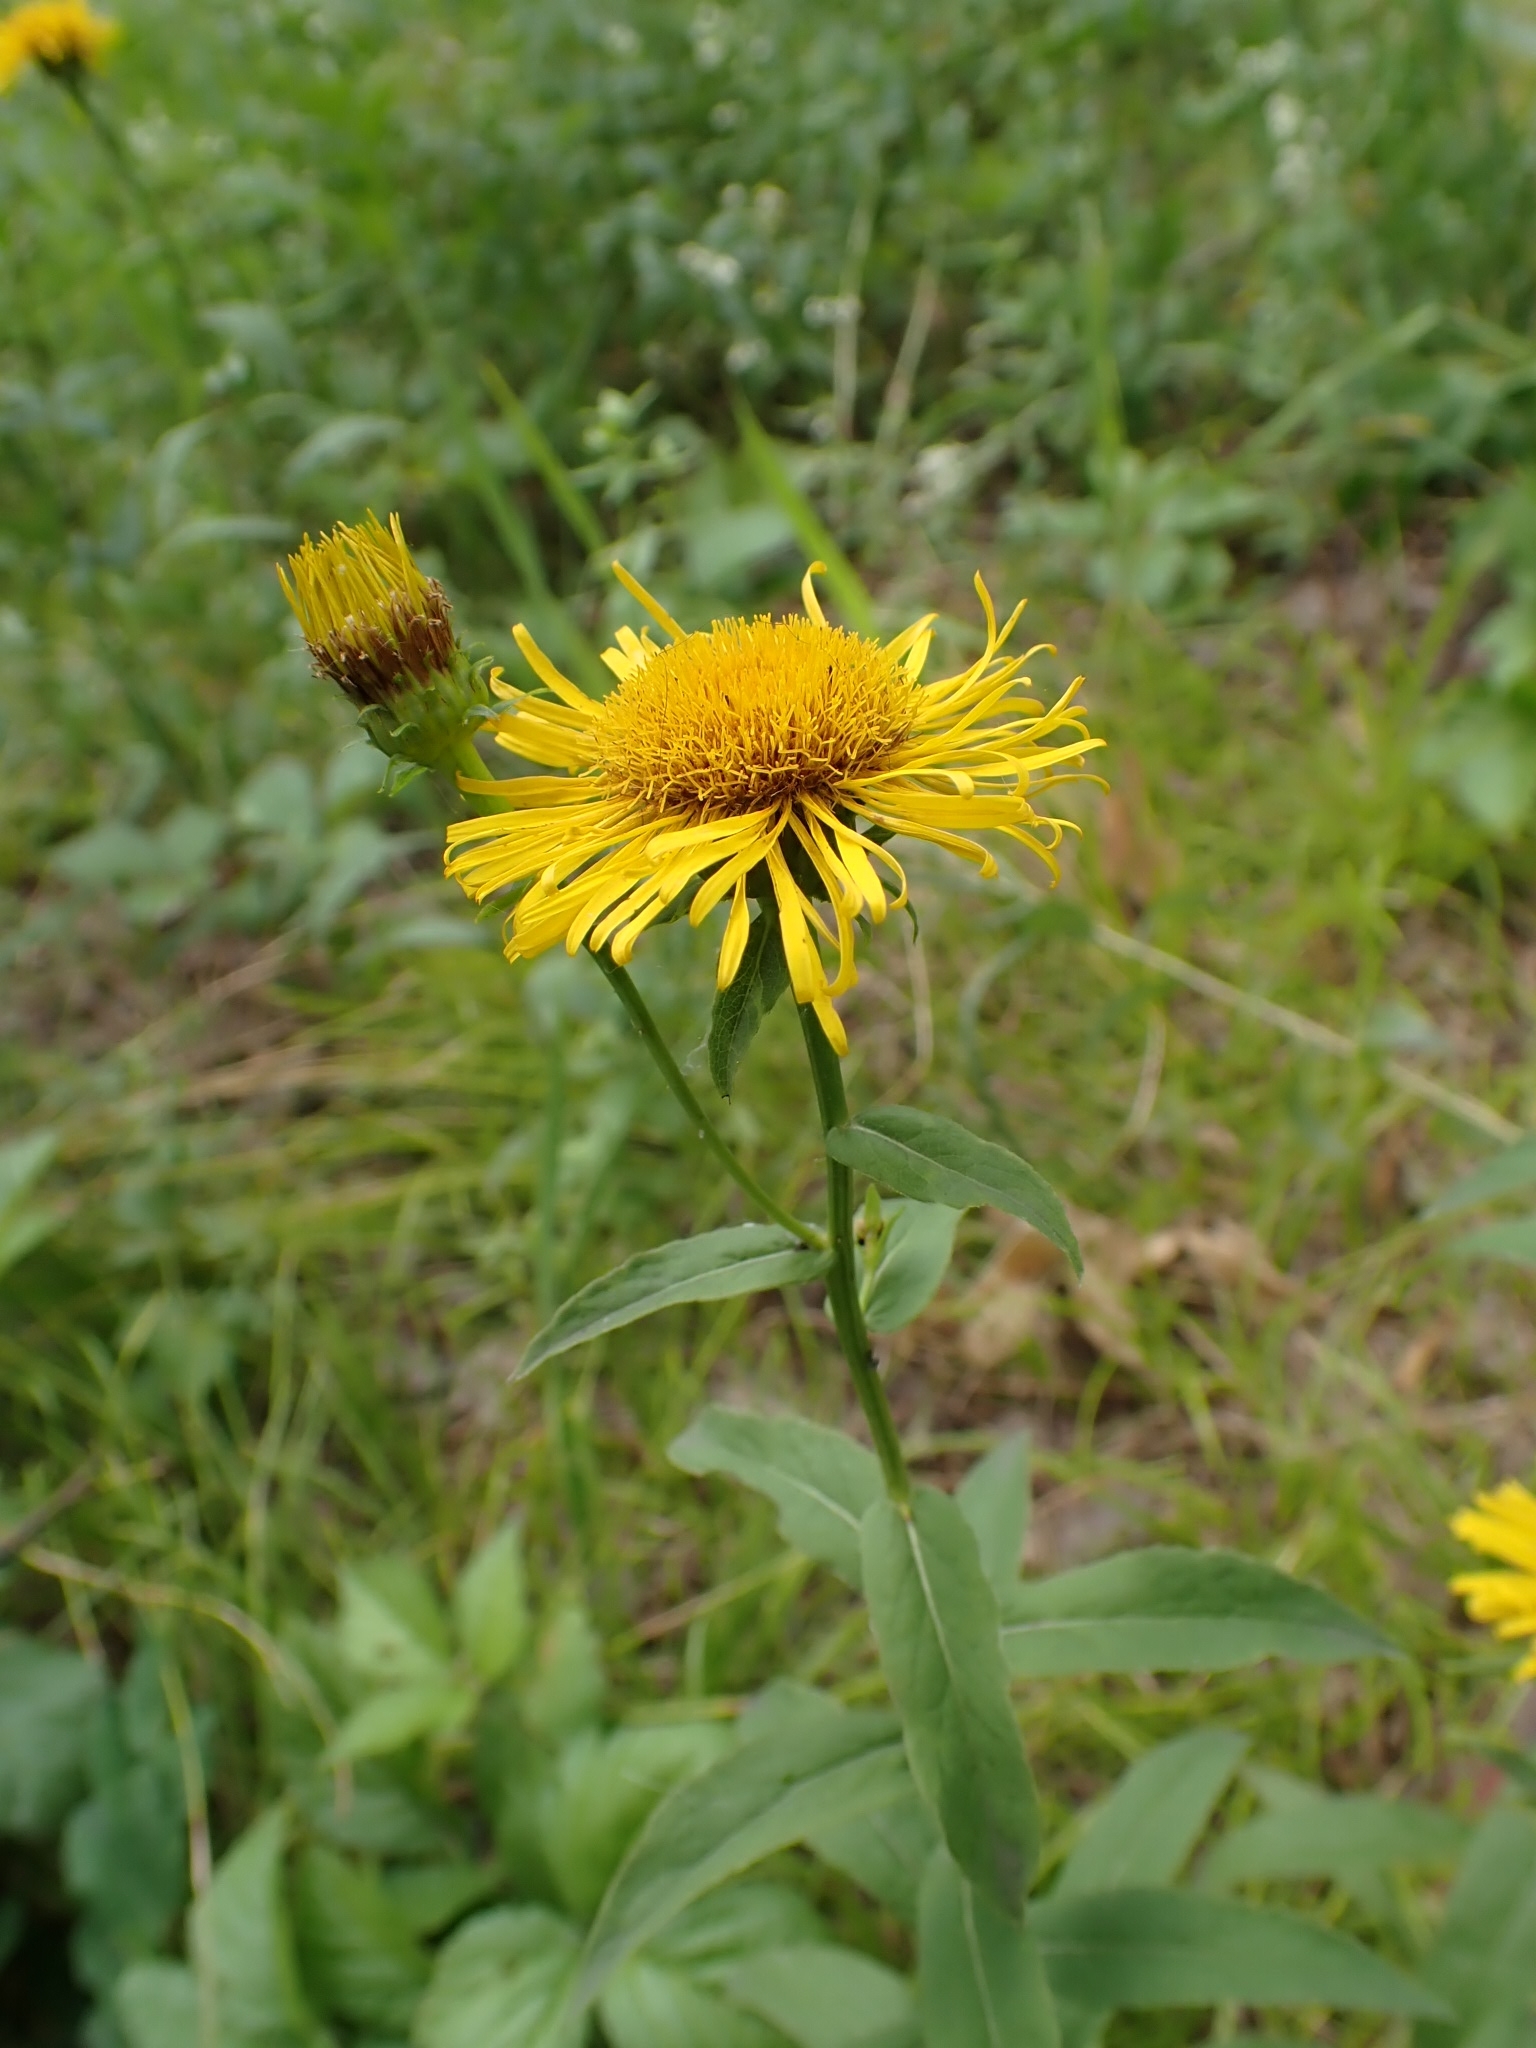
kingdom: Plantae
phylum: Tracheophyta
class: Magnoliopsida
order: Asterales
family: Asteraceae
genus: Pentanema
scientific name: Pentanema salicinum
